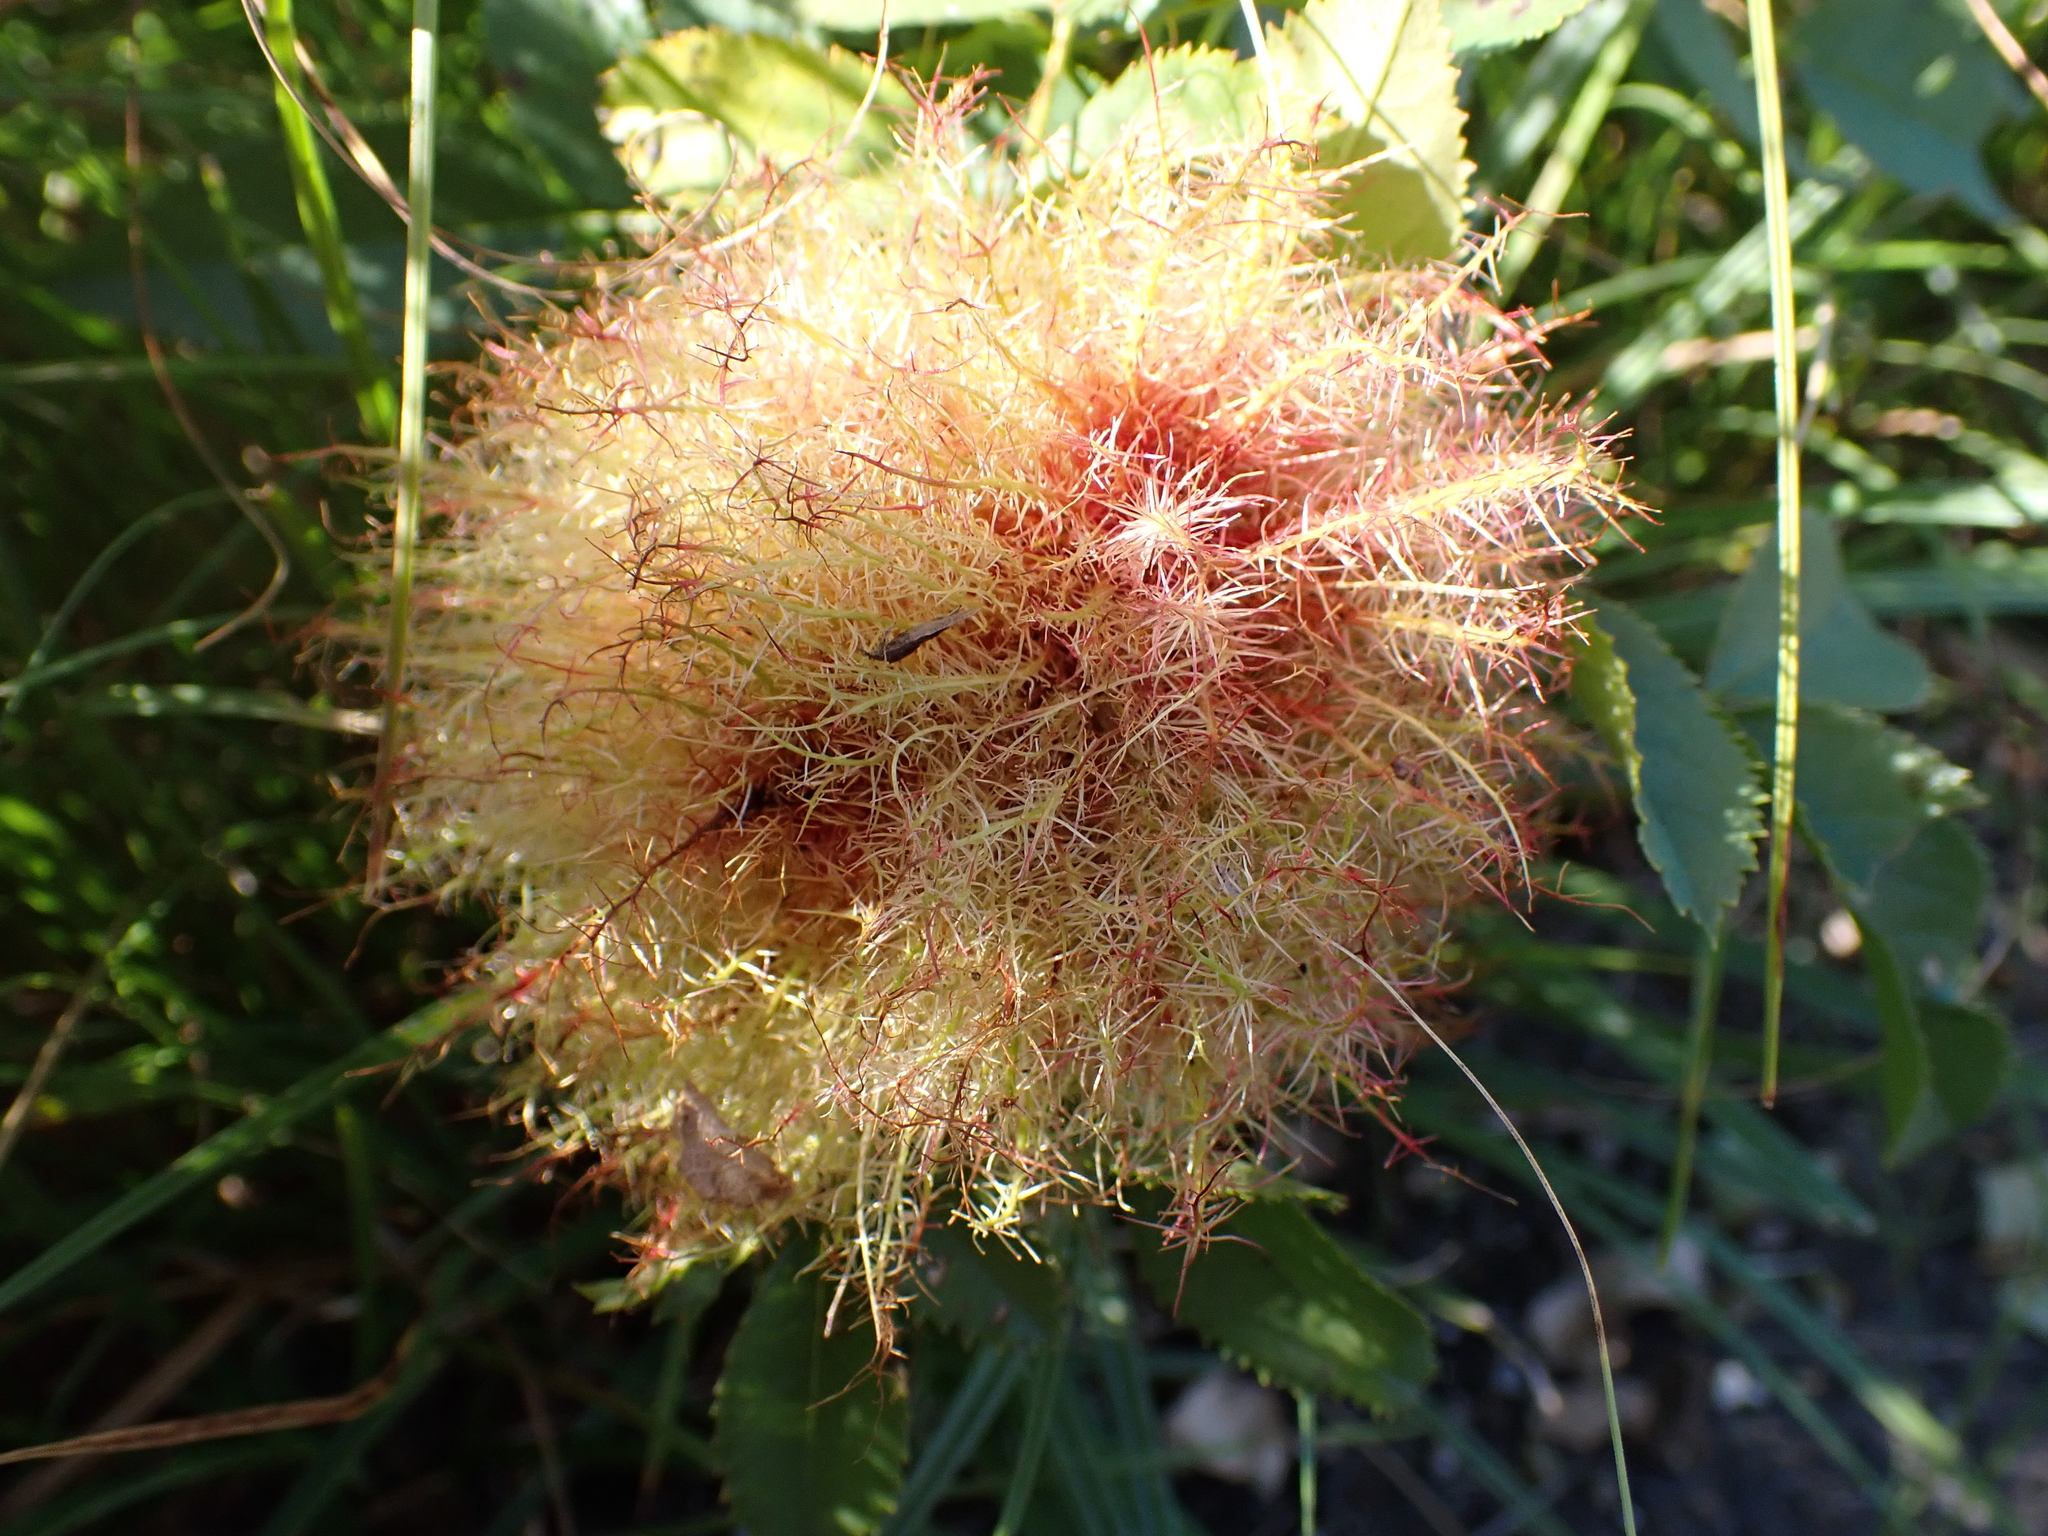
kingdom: Animalia
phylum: Arthropoda
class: Insecta
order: Hymenoptera
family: Cynipidae
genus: Diplolepis
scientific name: Diplolepis rosae
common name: Bedeguar gall
